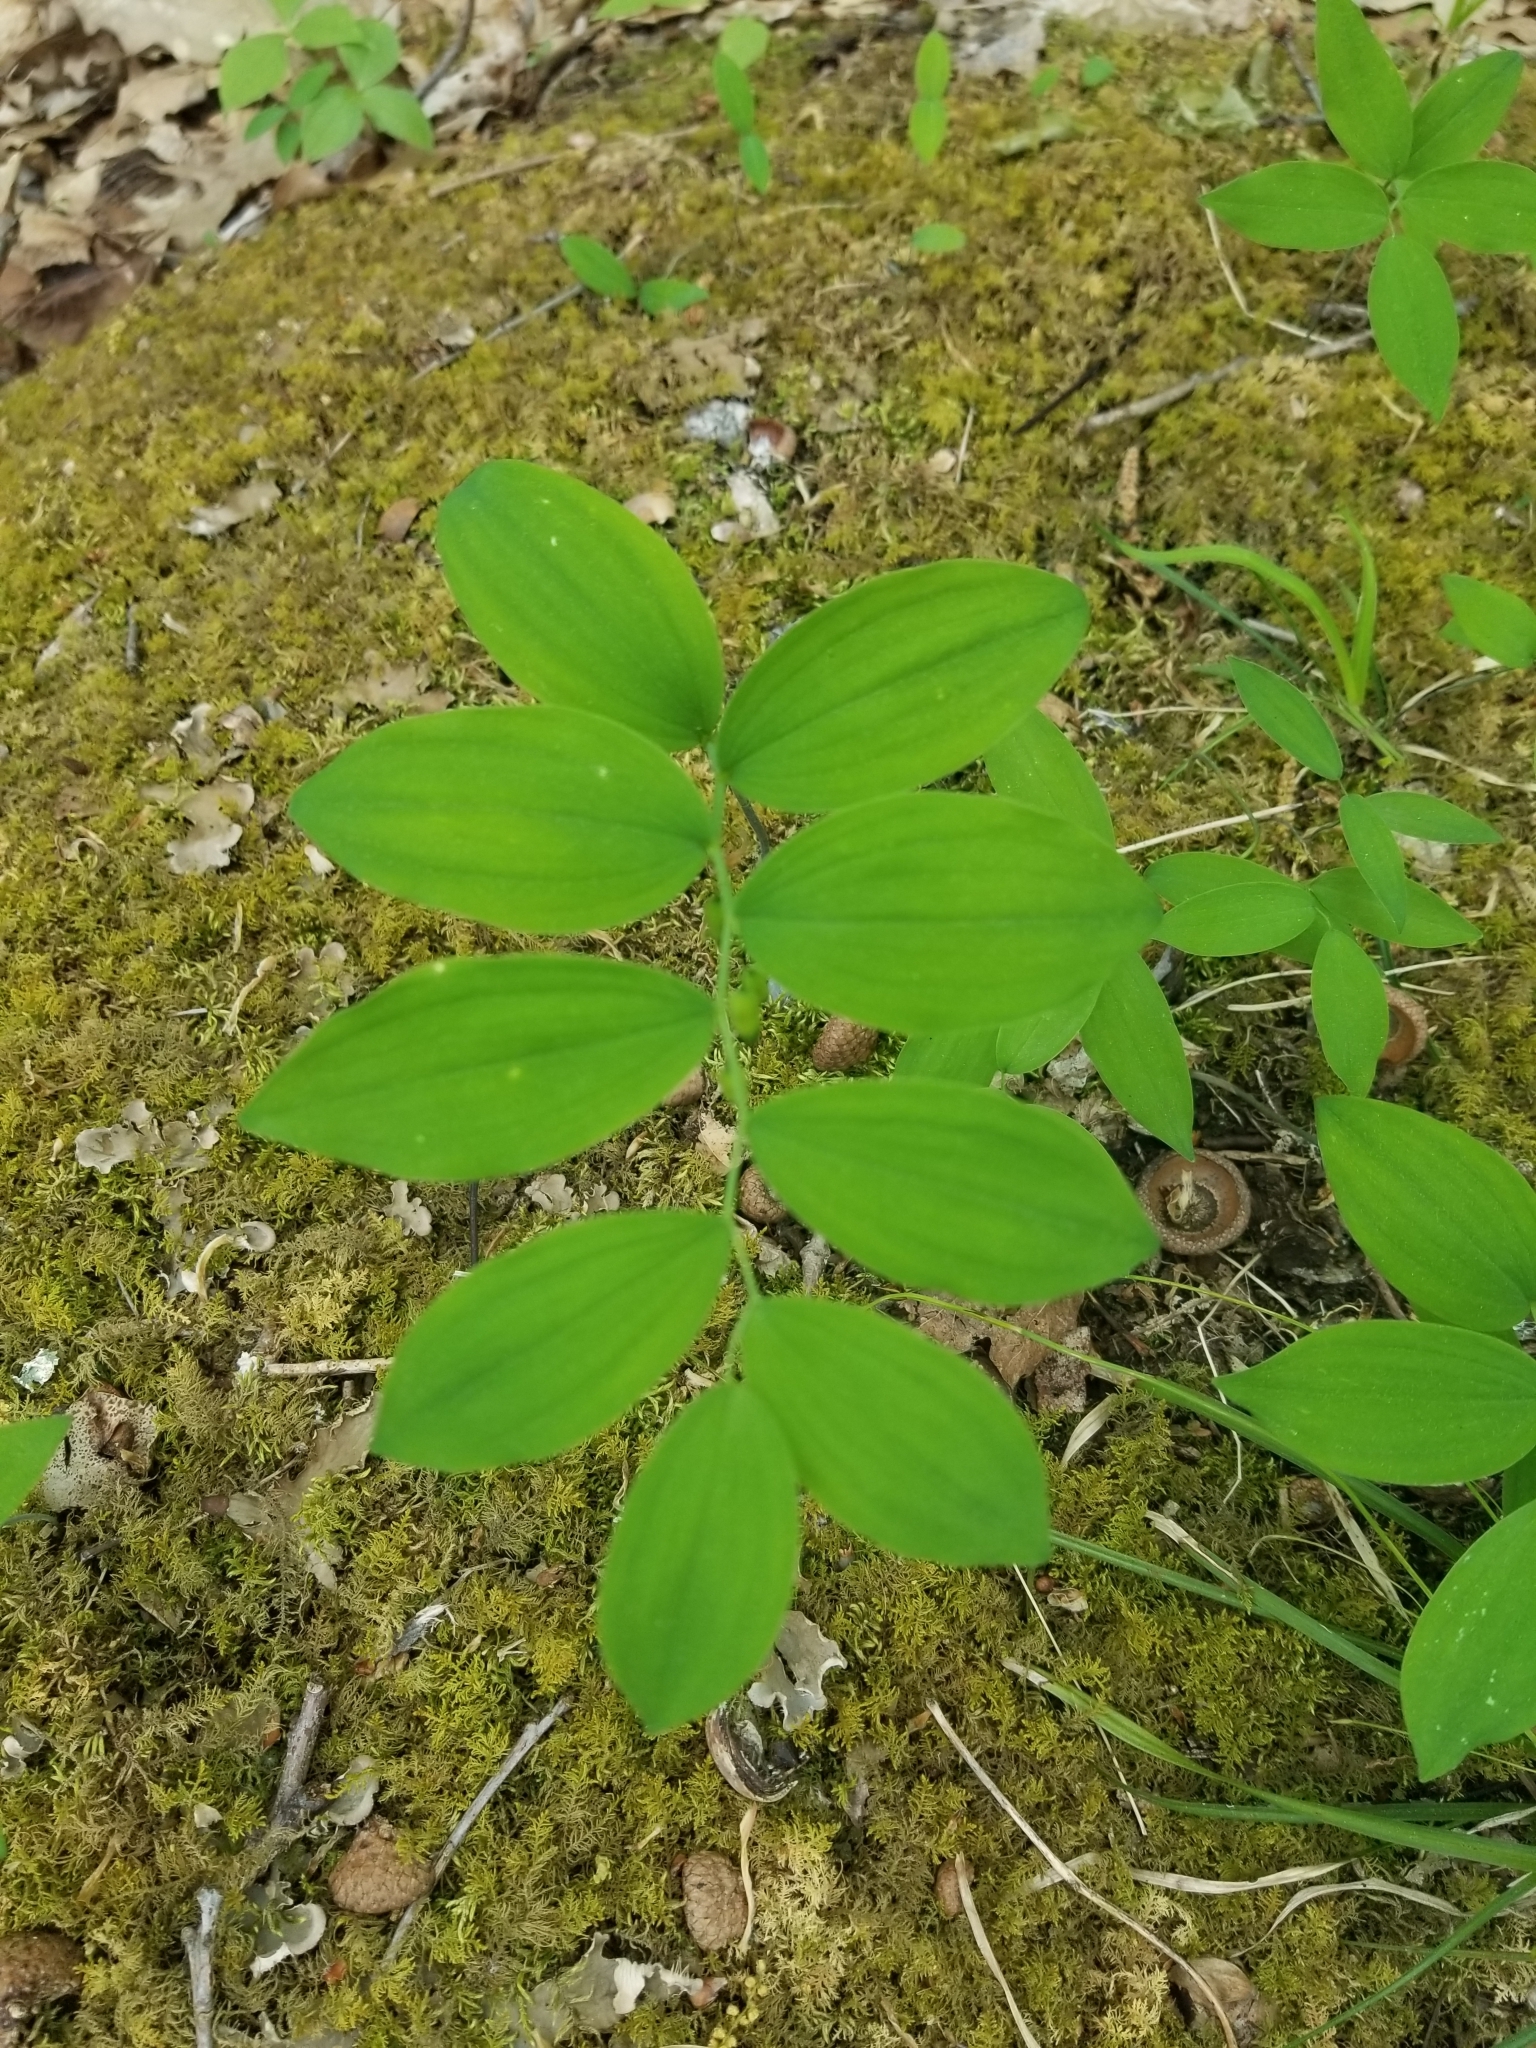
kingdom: Plantae
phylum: Tracheophyta
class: Liliopsida
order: Asparagales
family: Asparagaceae
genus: Polygonatum
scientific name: Polygonatum pubescens
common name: Downy solomon's seal
